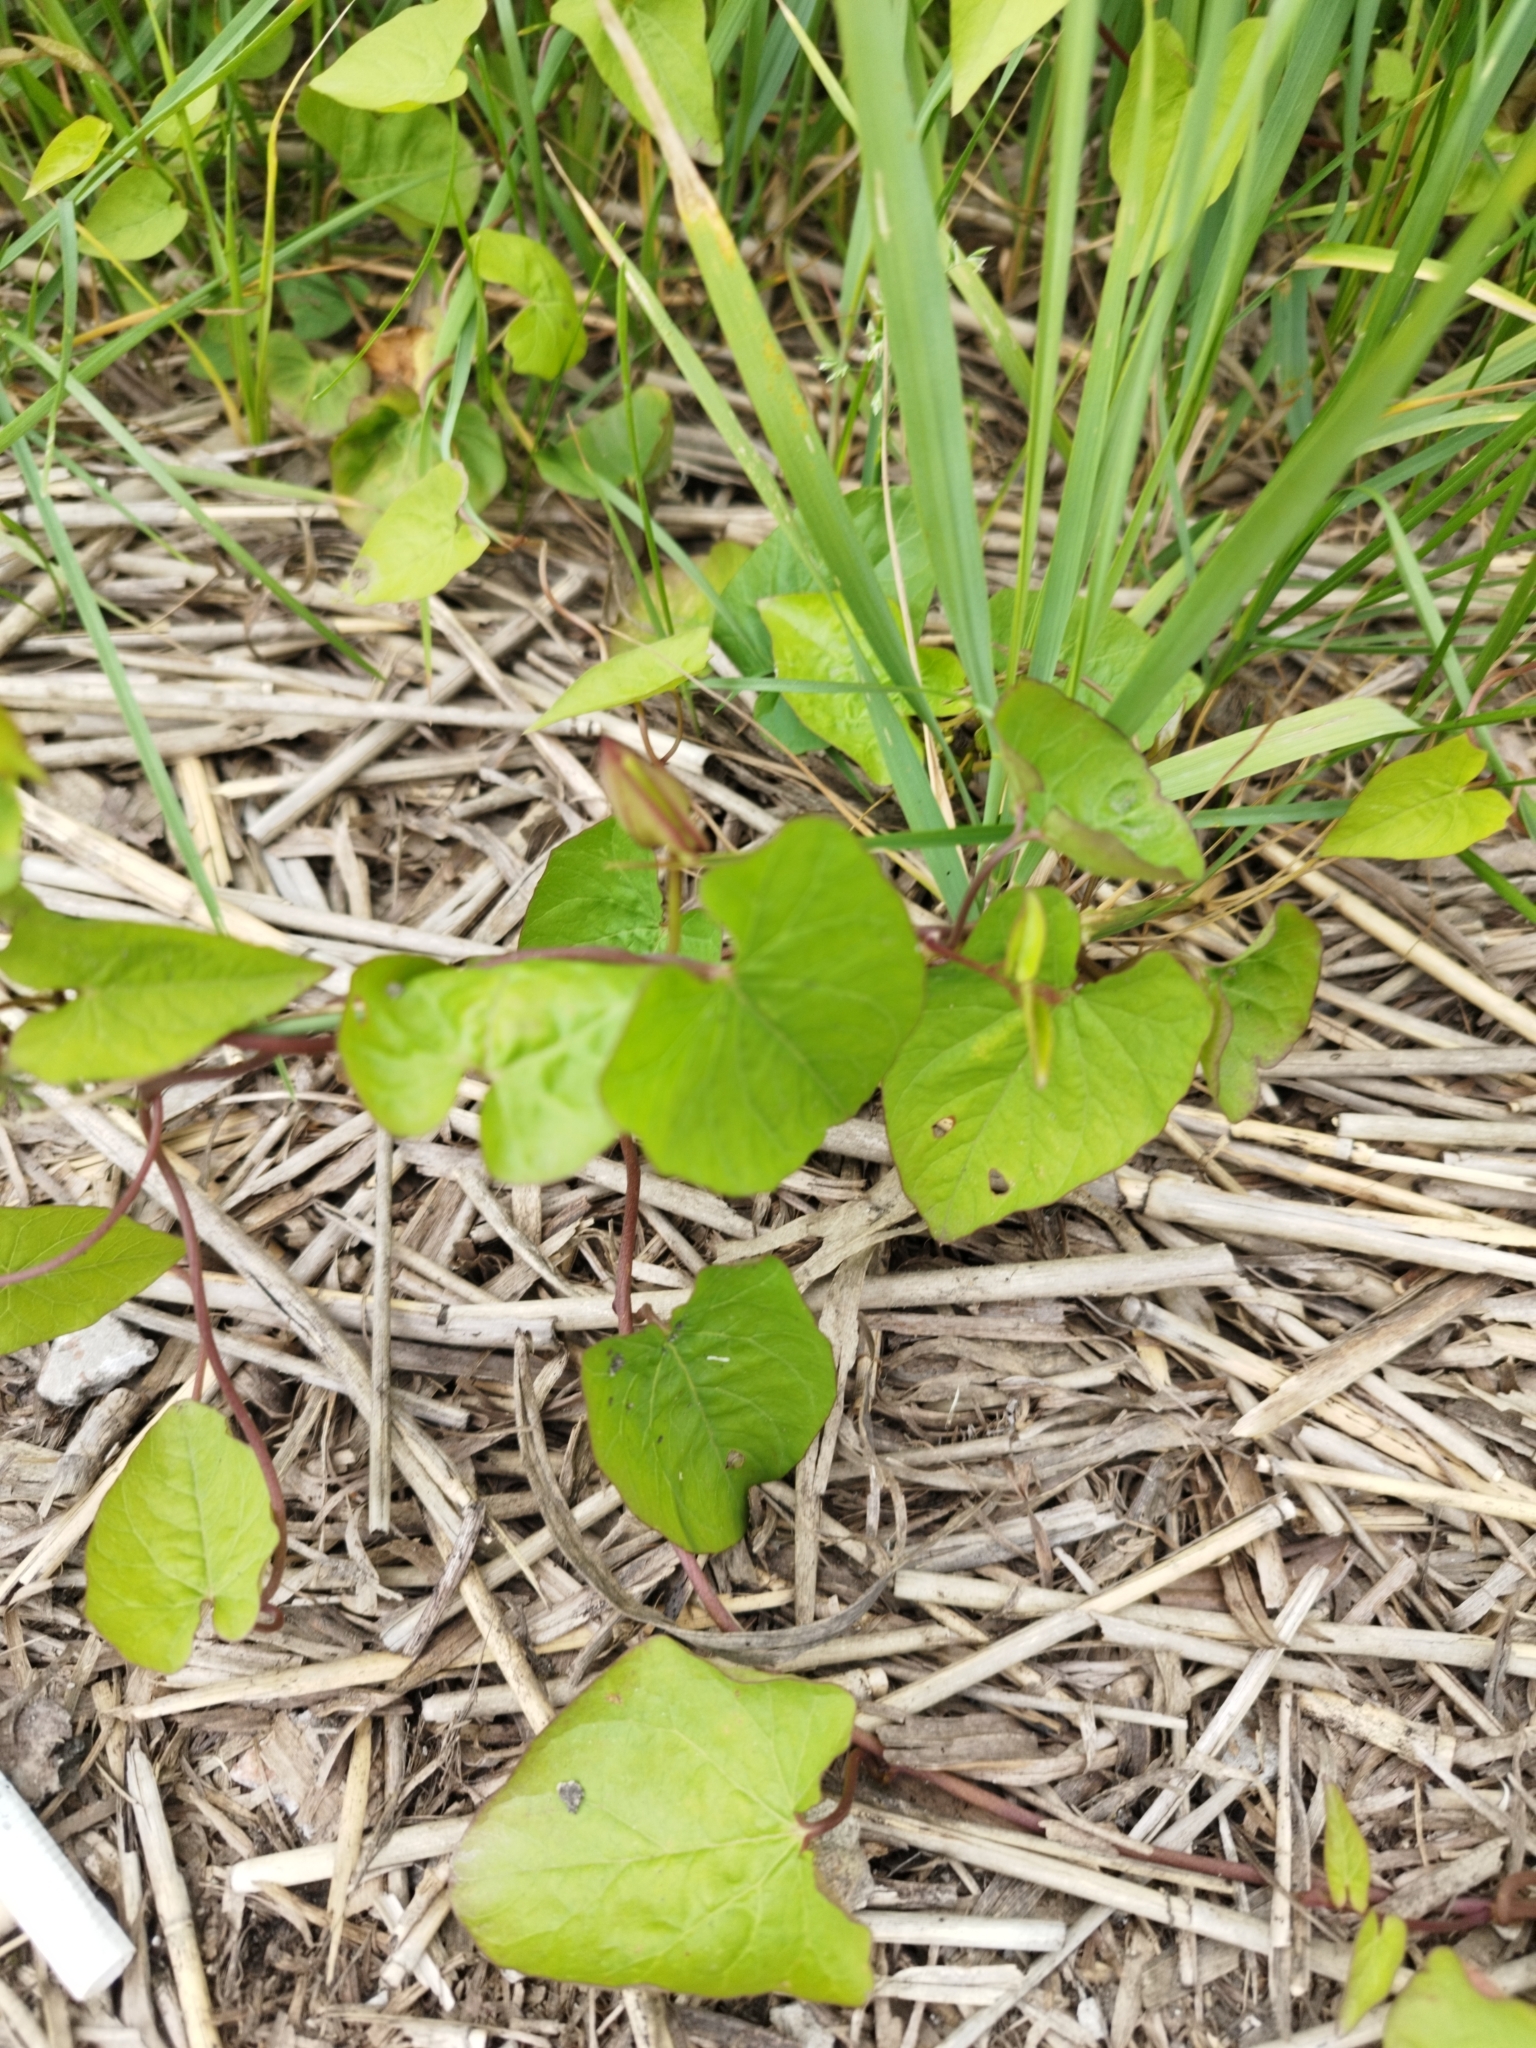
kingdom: Plantae
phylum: Tracheophyta
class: Magnoliopsida
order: Solanales
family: Convolvulaceae
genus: Calystegia
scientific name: Calystegia sepium
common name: Hedge bindweed
